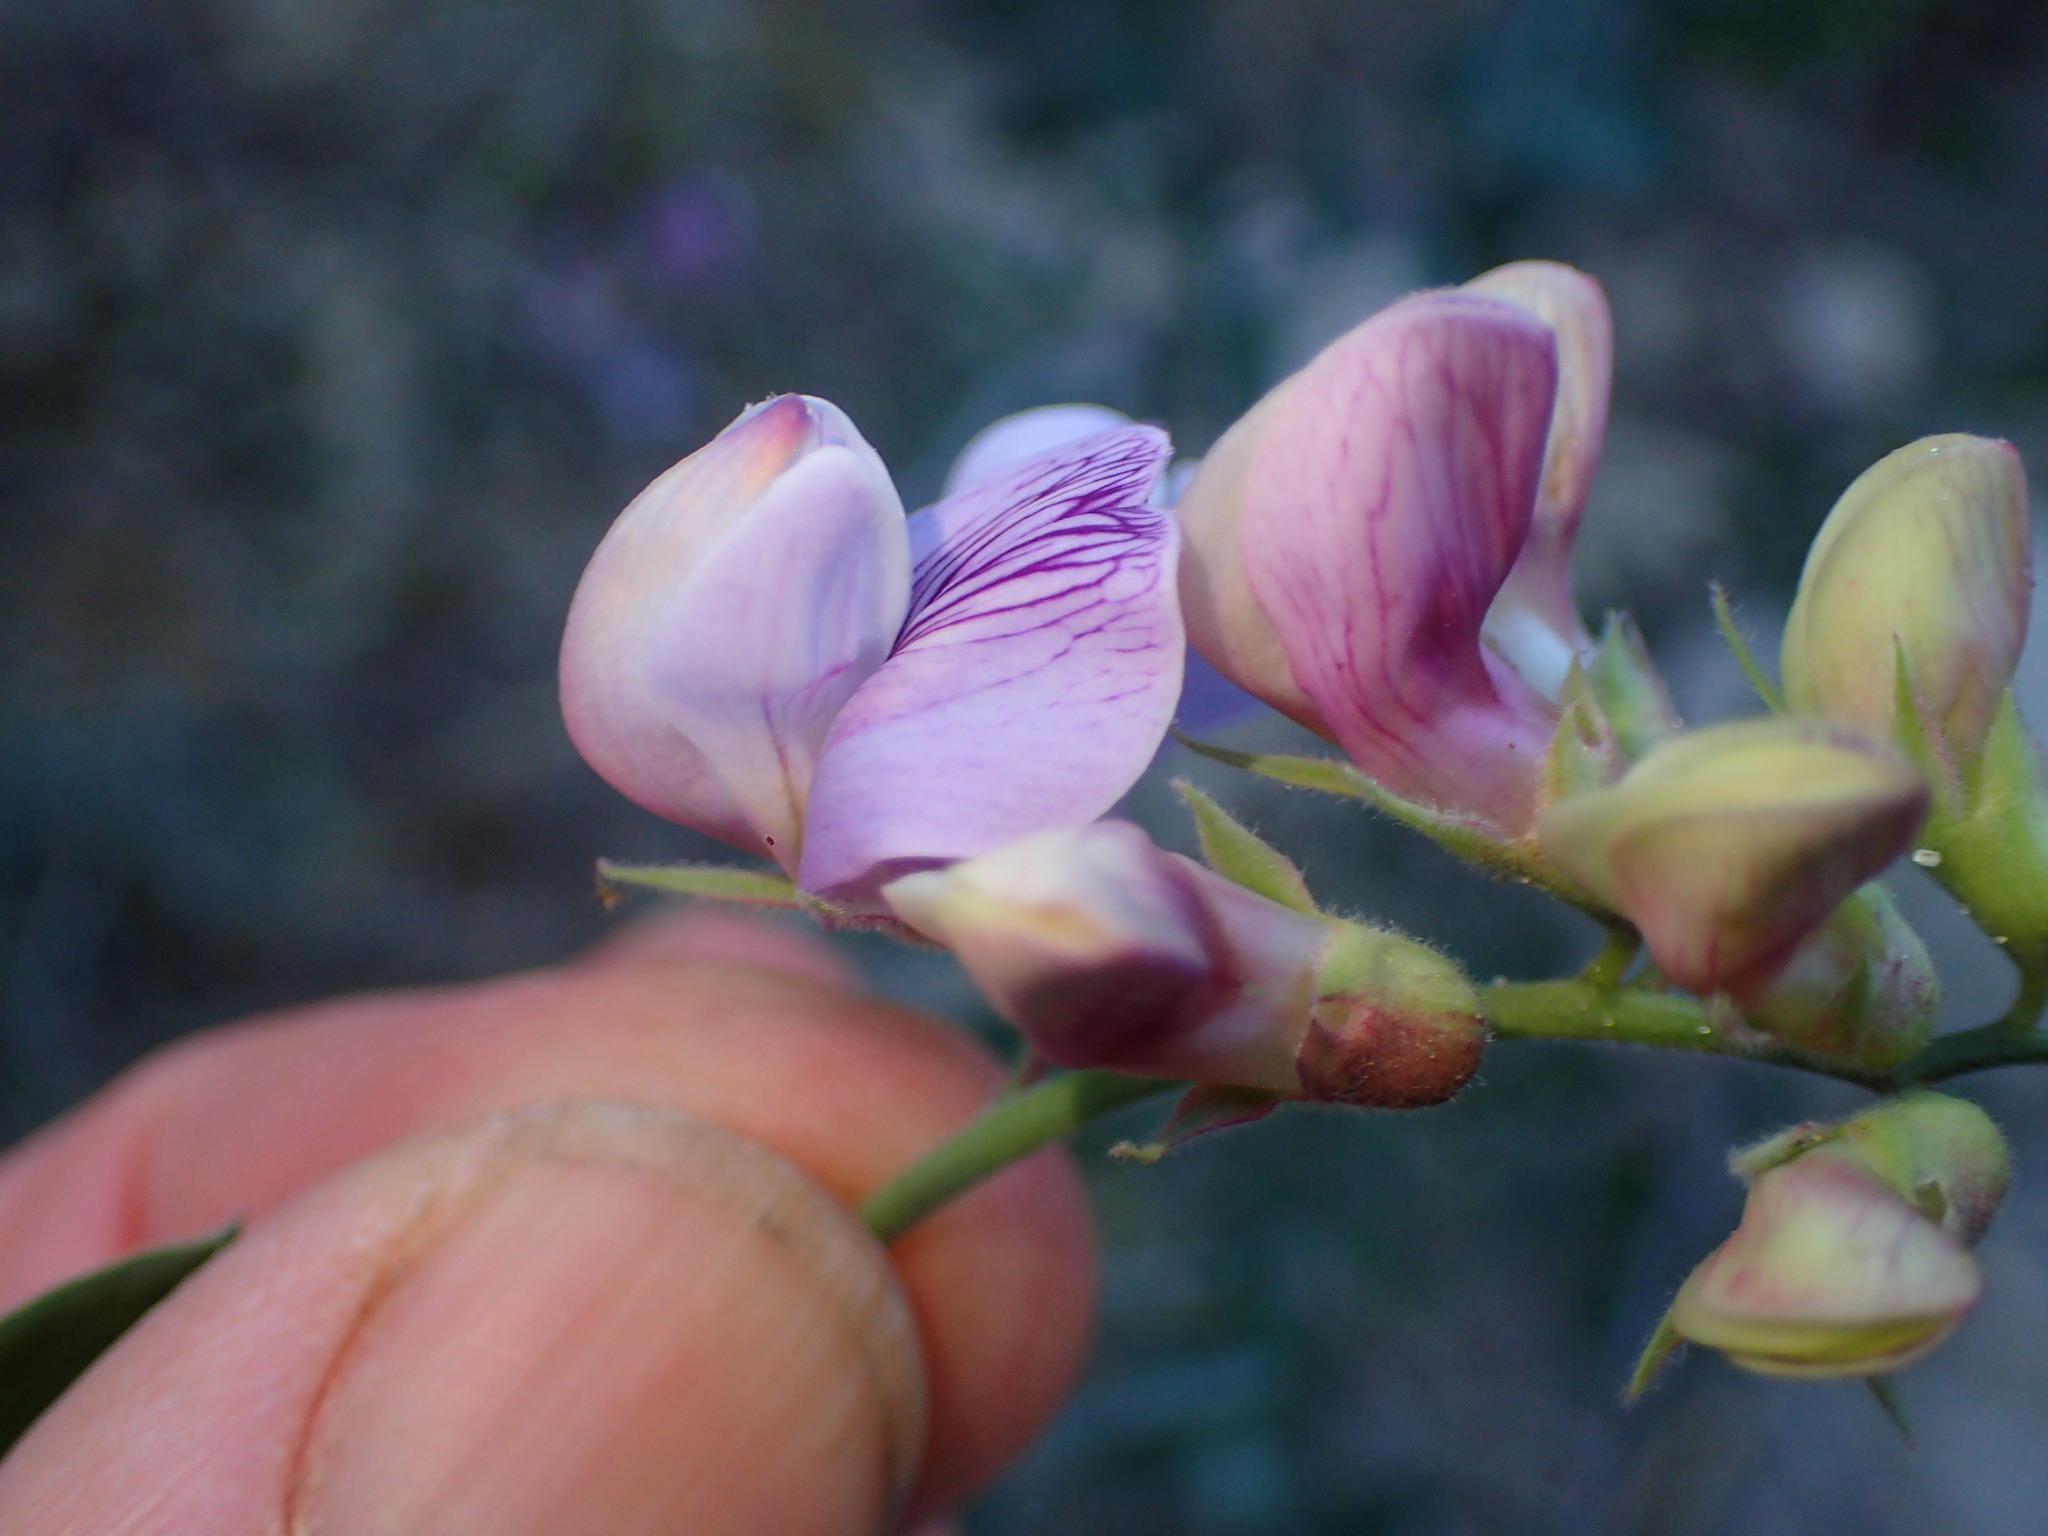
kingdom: Plantae
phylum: Tracheophyta
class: Magnoliopsida
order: Fabales
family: Fabaceae
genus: Lathyrus
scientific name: Lathyrus vestitus
